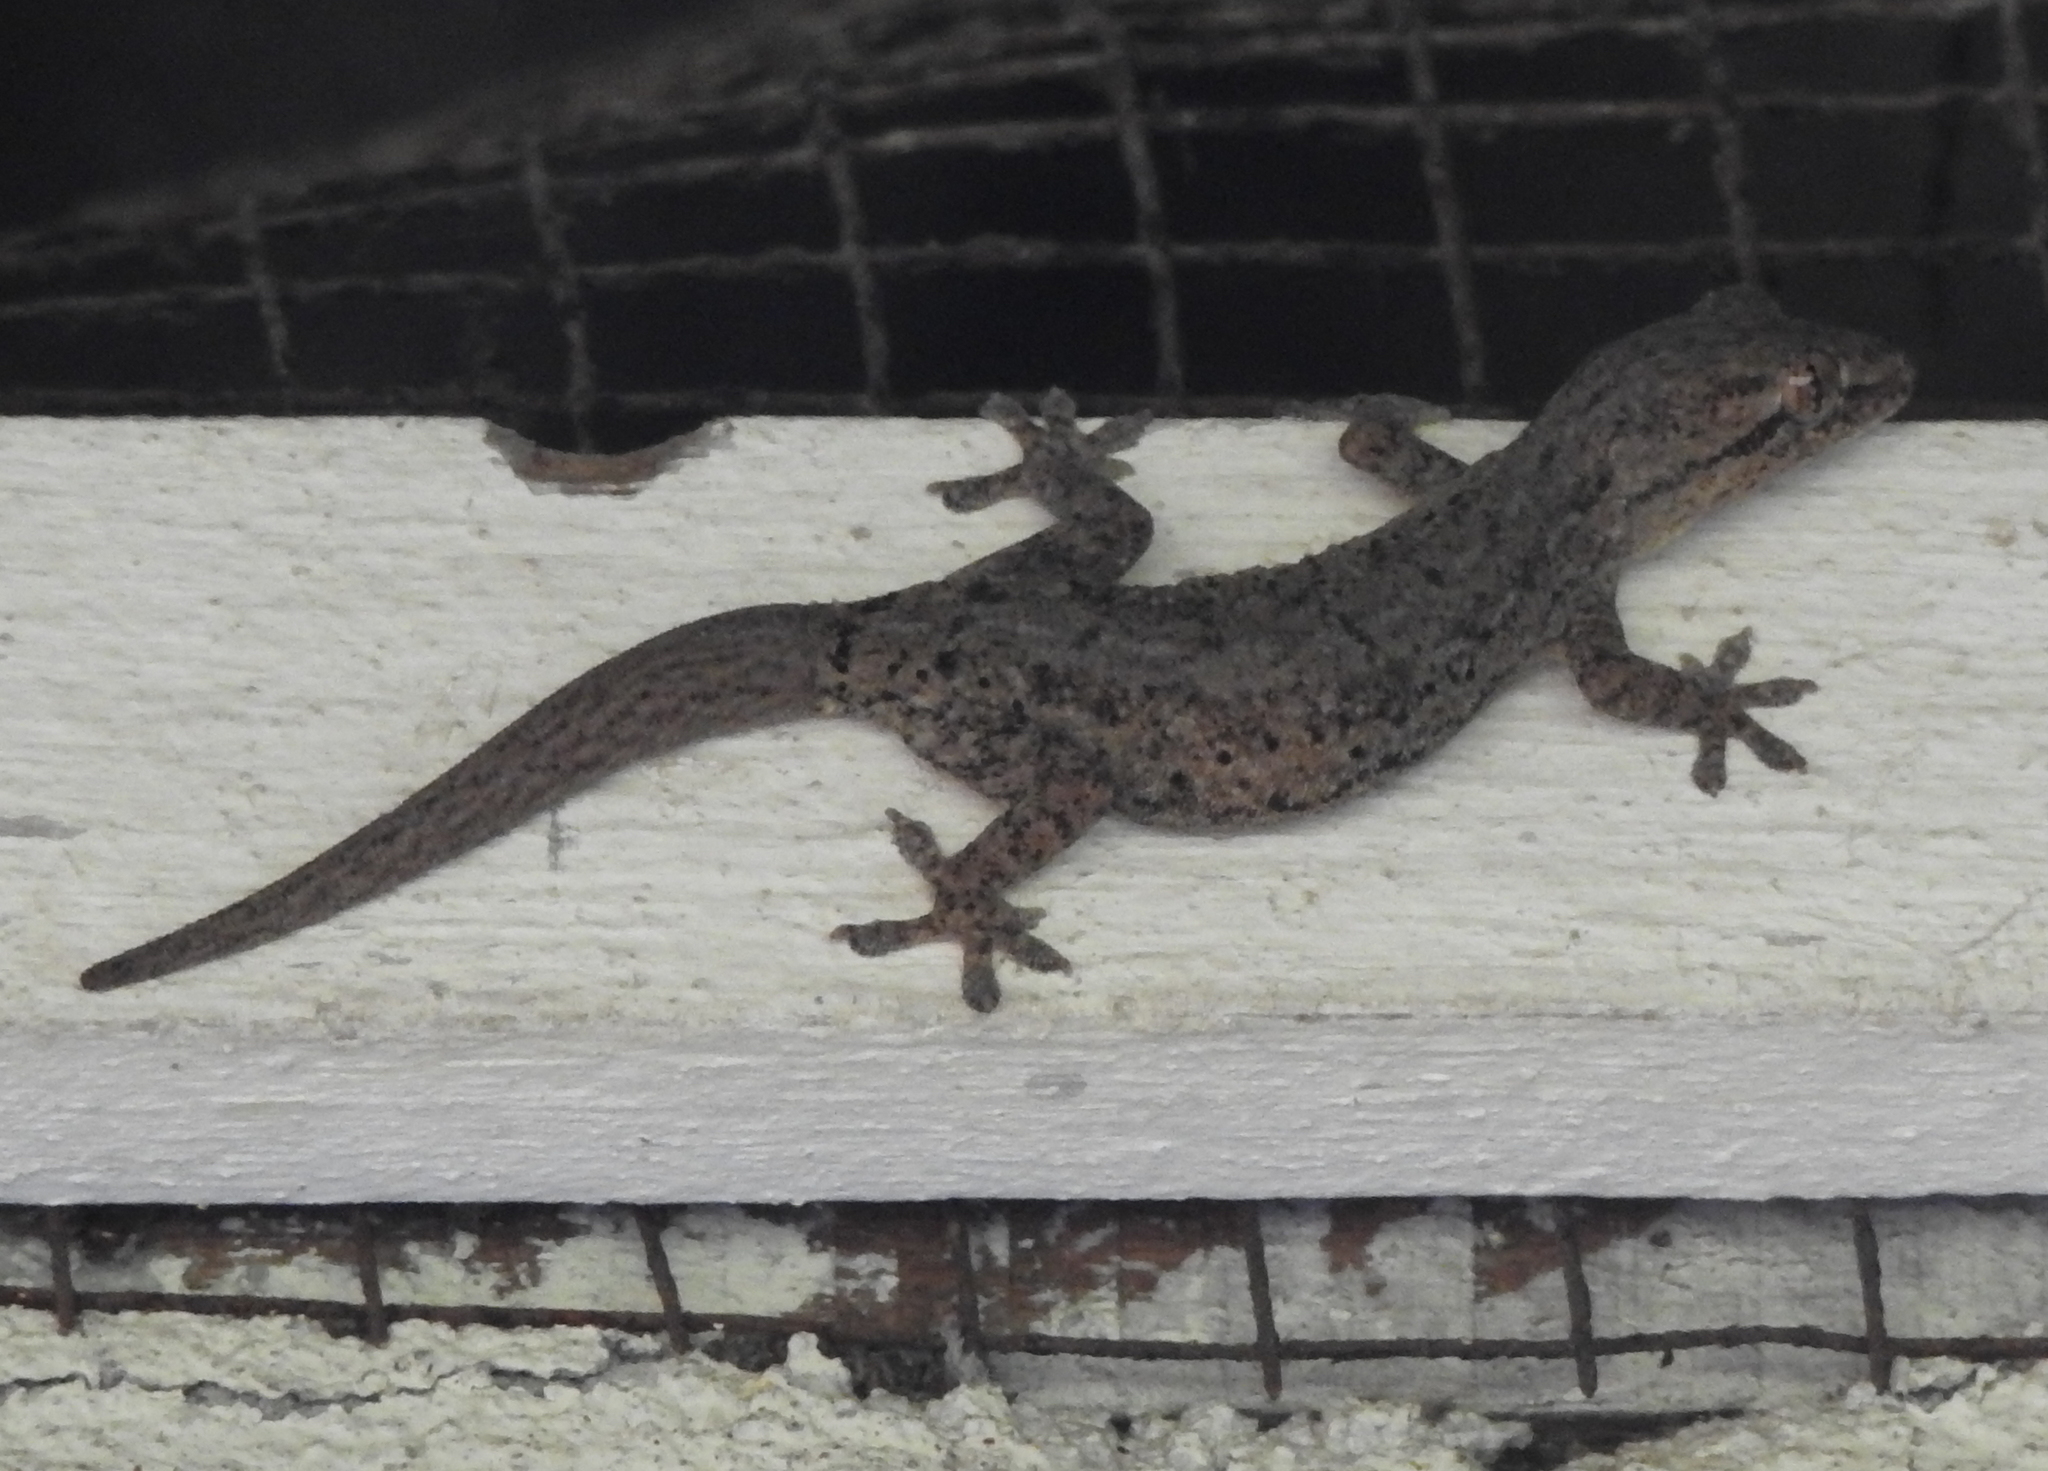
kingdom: Animalia
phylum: Chordata
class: Squamata
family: Gekkonidae
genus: Hemidactylus
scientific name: Hemidactylus frenatus
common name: Common house gecko
